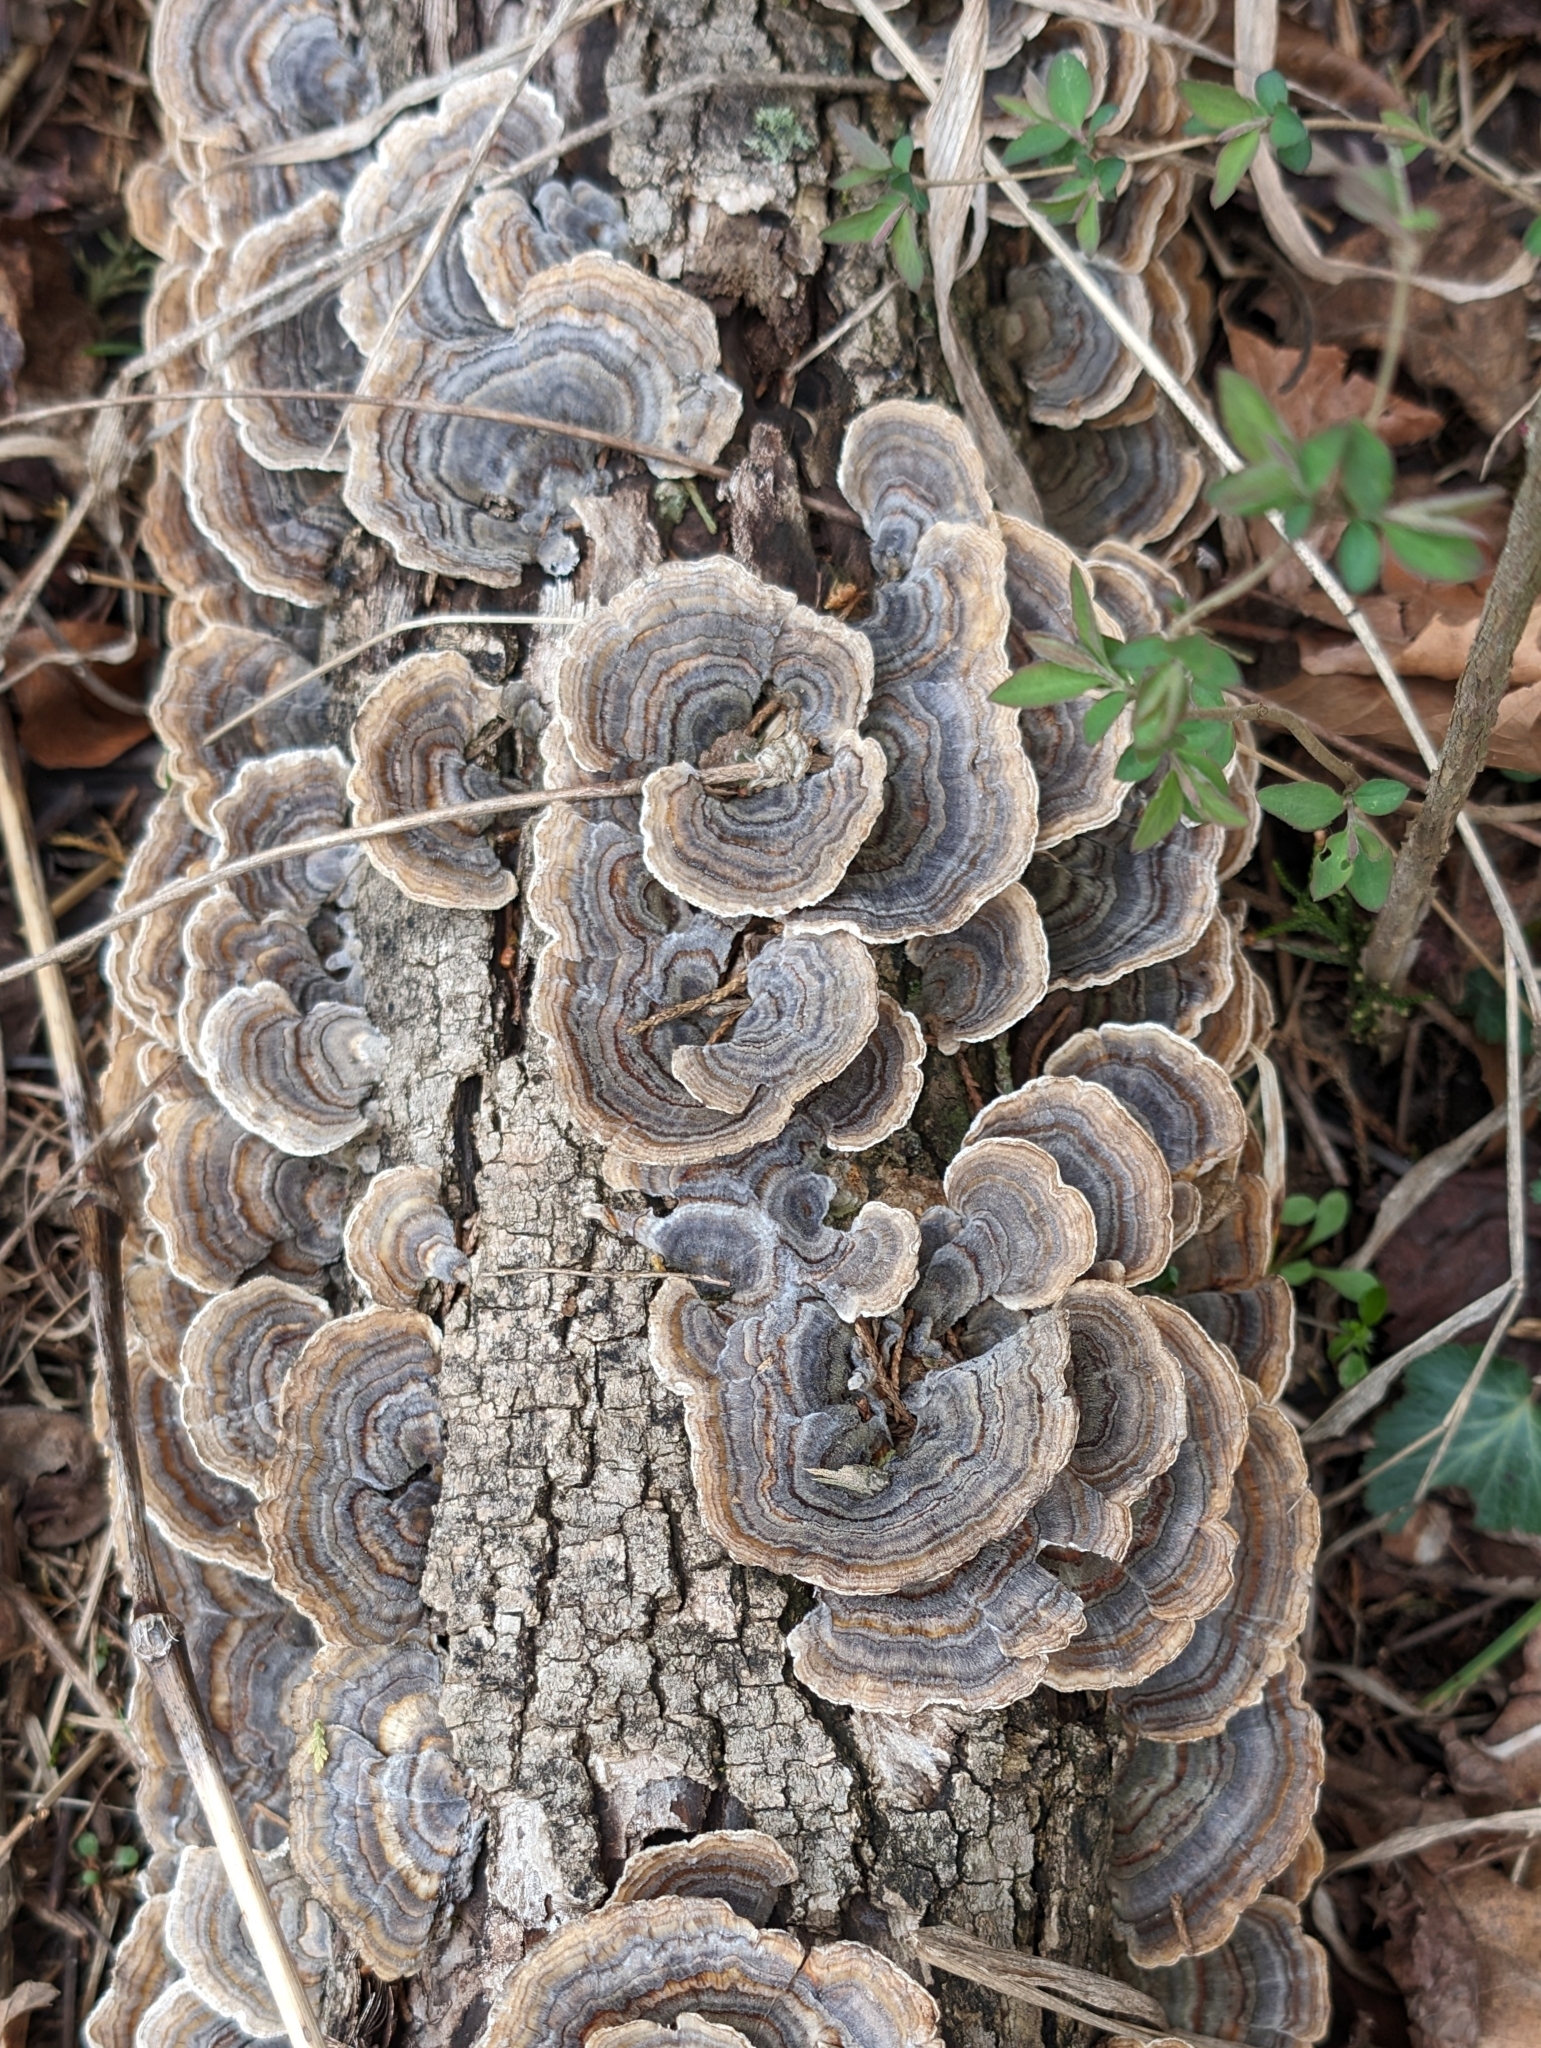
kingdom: Fungi
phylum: Basidiomycota
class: Agaricomycetes
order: Polyporales
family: Polyporaceae
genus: Trametes
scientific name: Trametes versicolor
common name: Turkeytail
